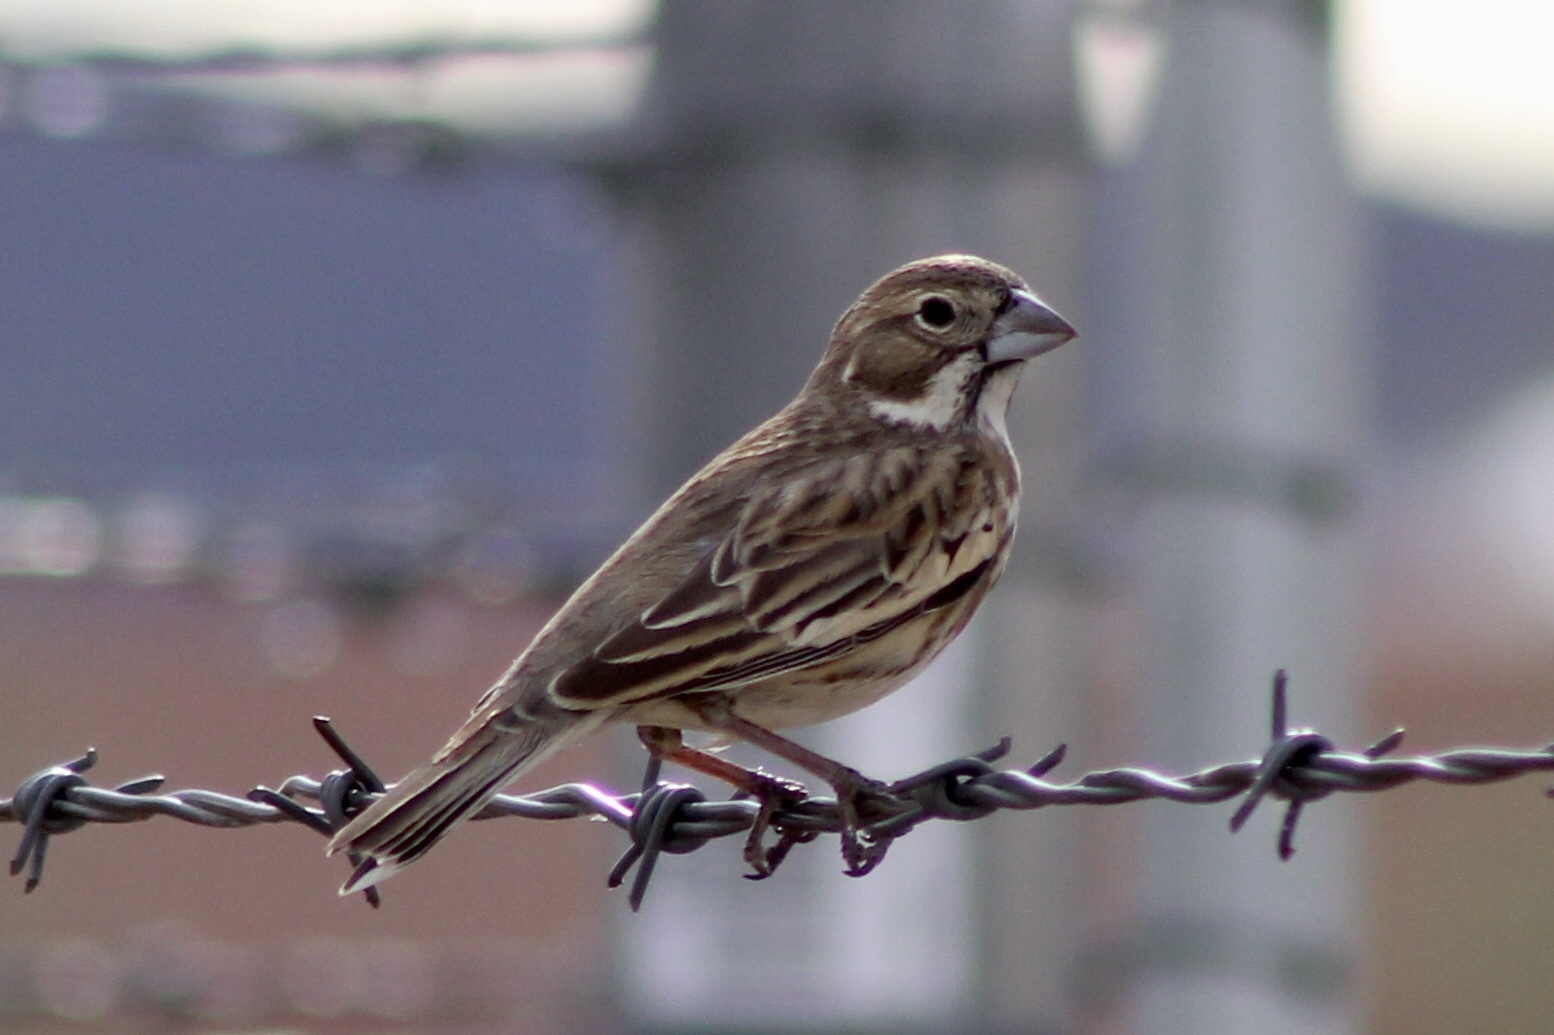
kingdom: Animalia
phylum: Chordata
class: Aves
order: Passeriformes
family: Passerellidae
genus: Calamospiza
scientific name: Calamospiza melanocorys
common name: Lark bunting
